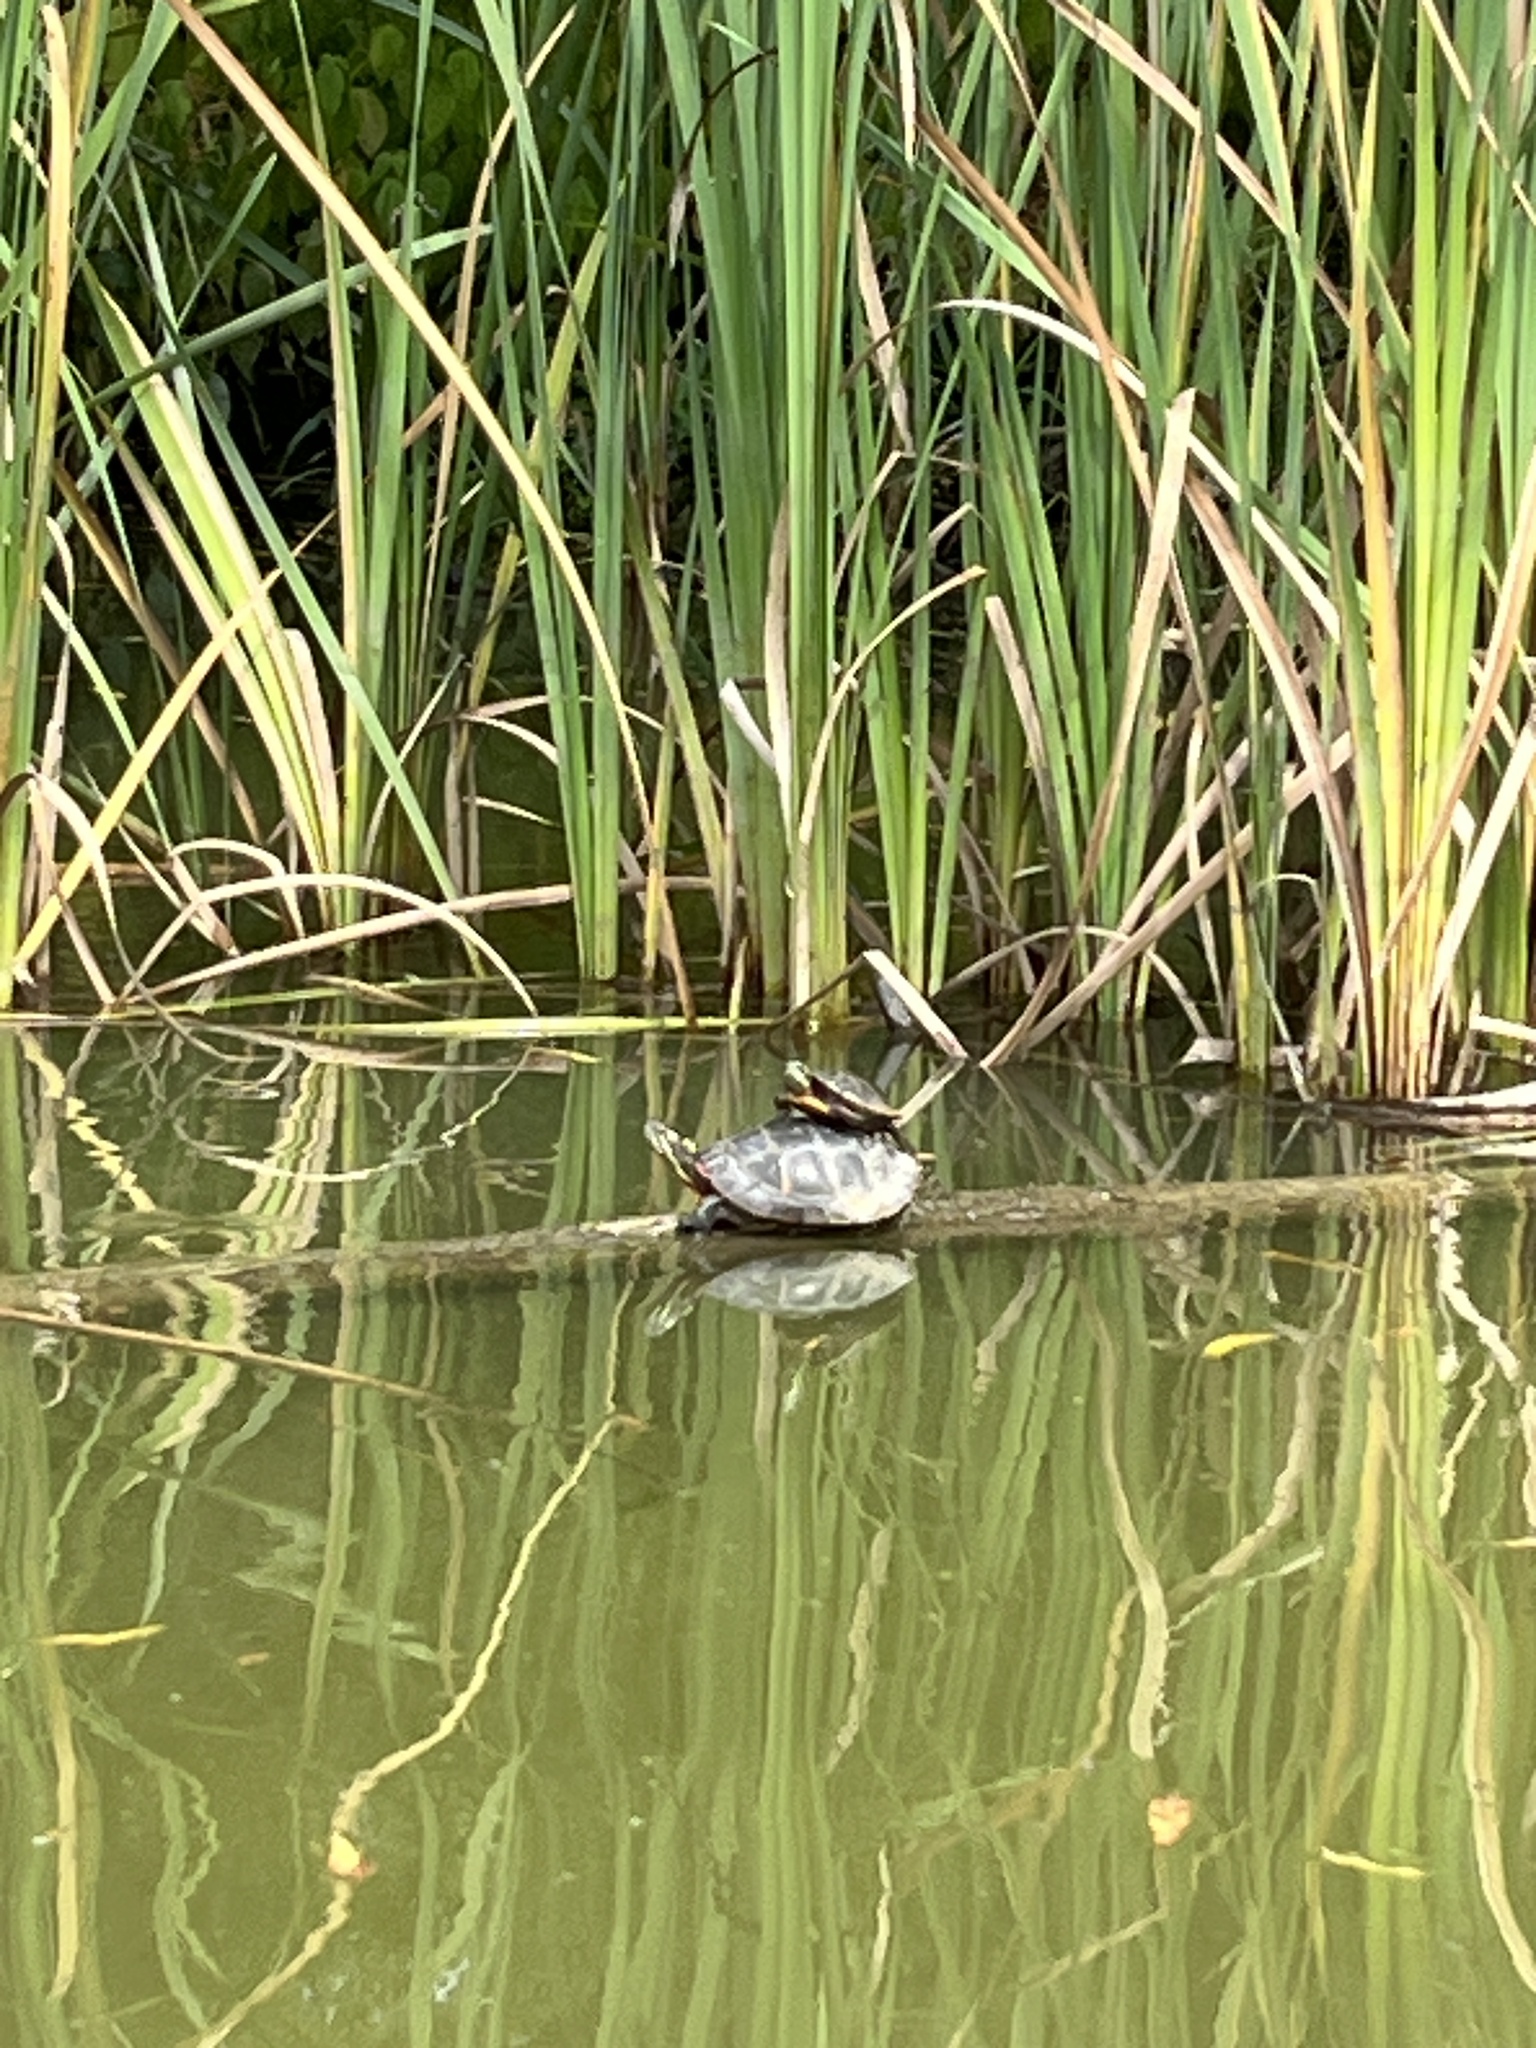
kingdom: Animalia
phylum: Chordata
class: Testudines
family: Emydidae
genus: Chrysemys
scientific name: Chrysemys picta
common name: Painted turtle
